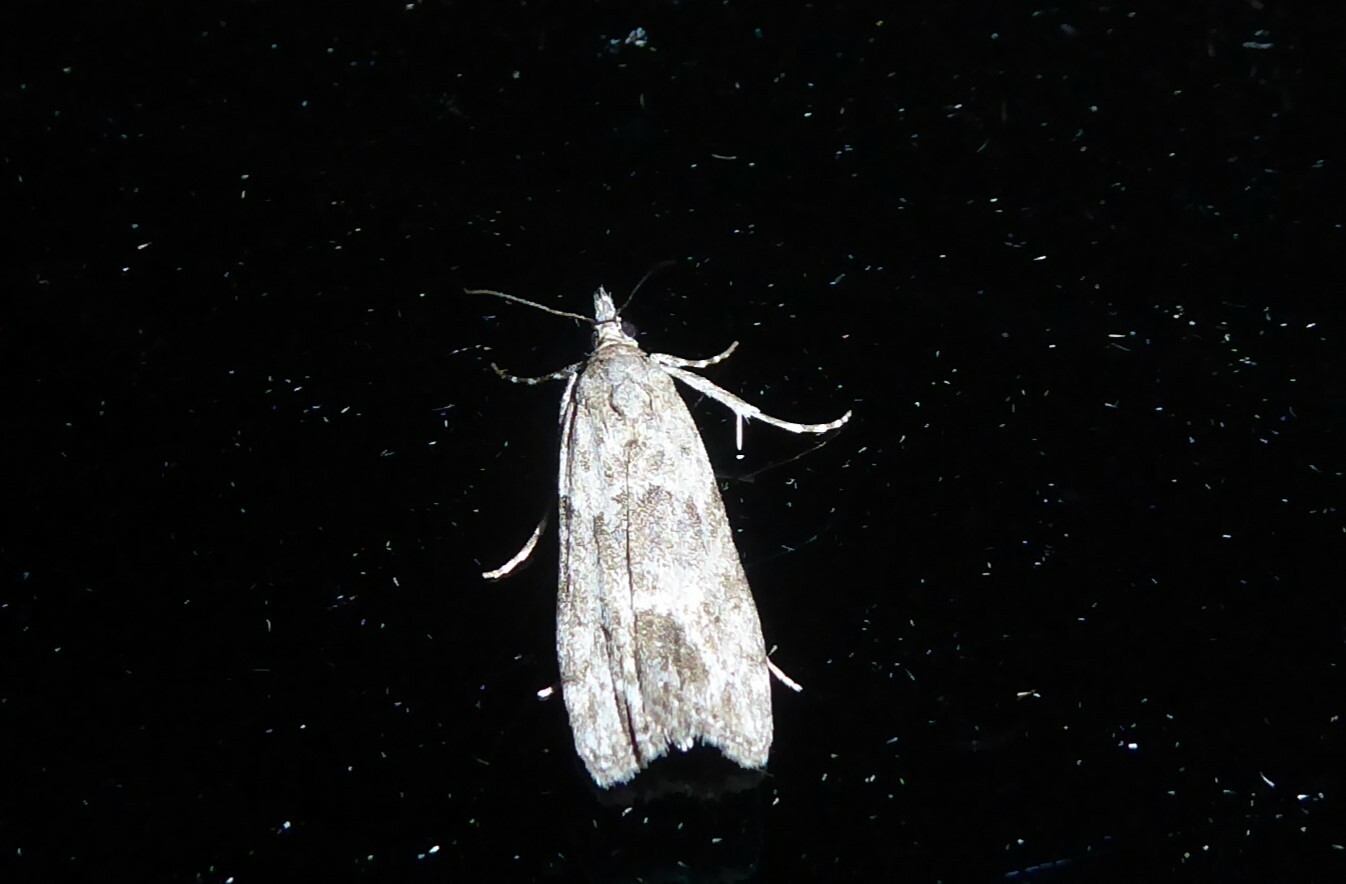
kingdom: Animalia
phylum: Arthropoda
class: Insecta
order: Lepidoptera
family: Crambidae
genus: Eudonia
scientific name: Eudonia rakaiensis
